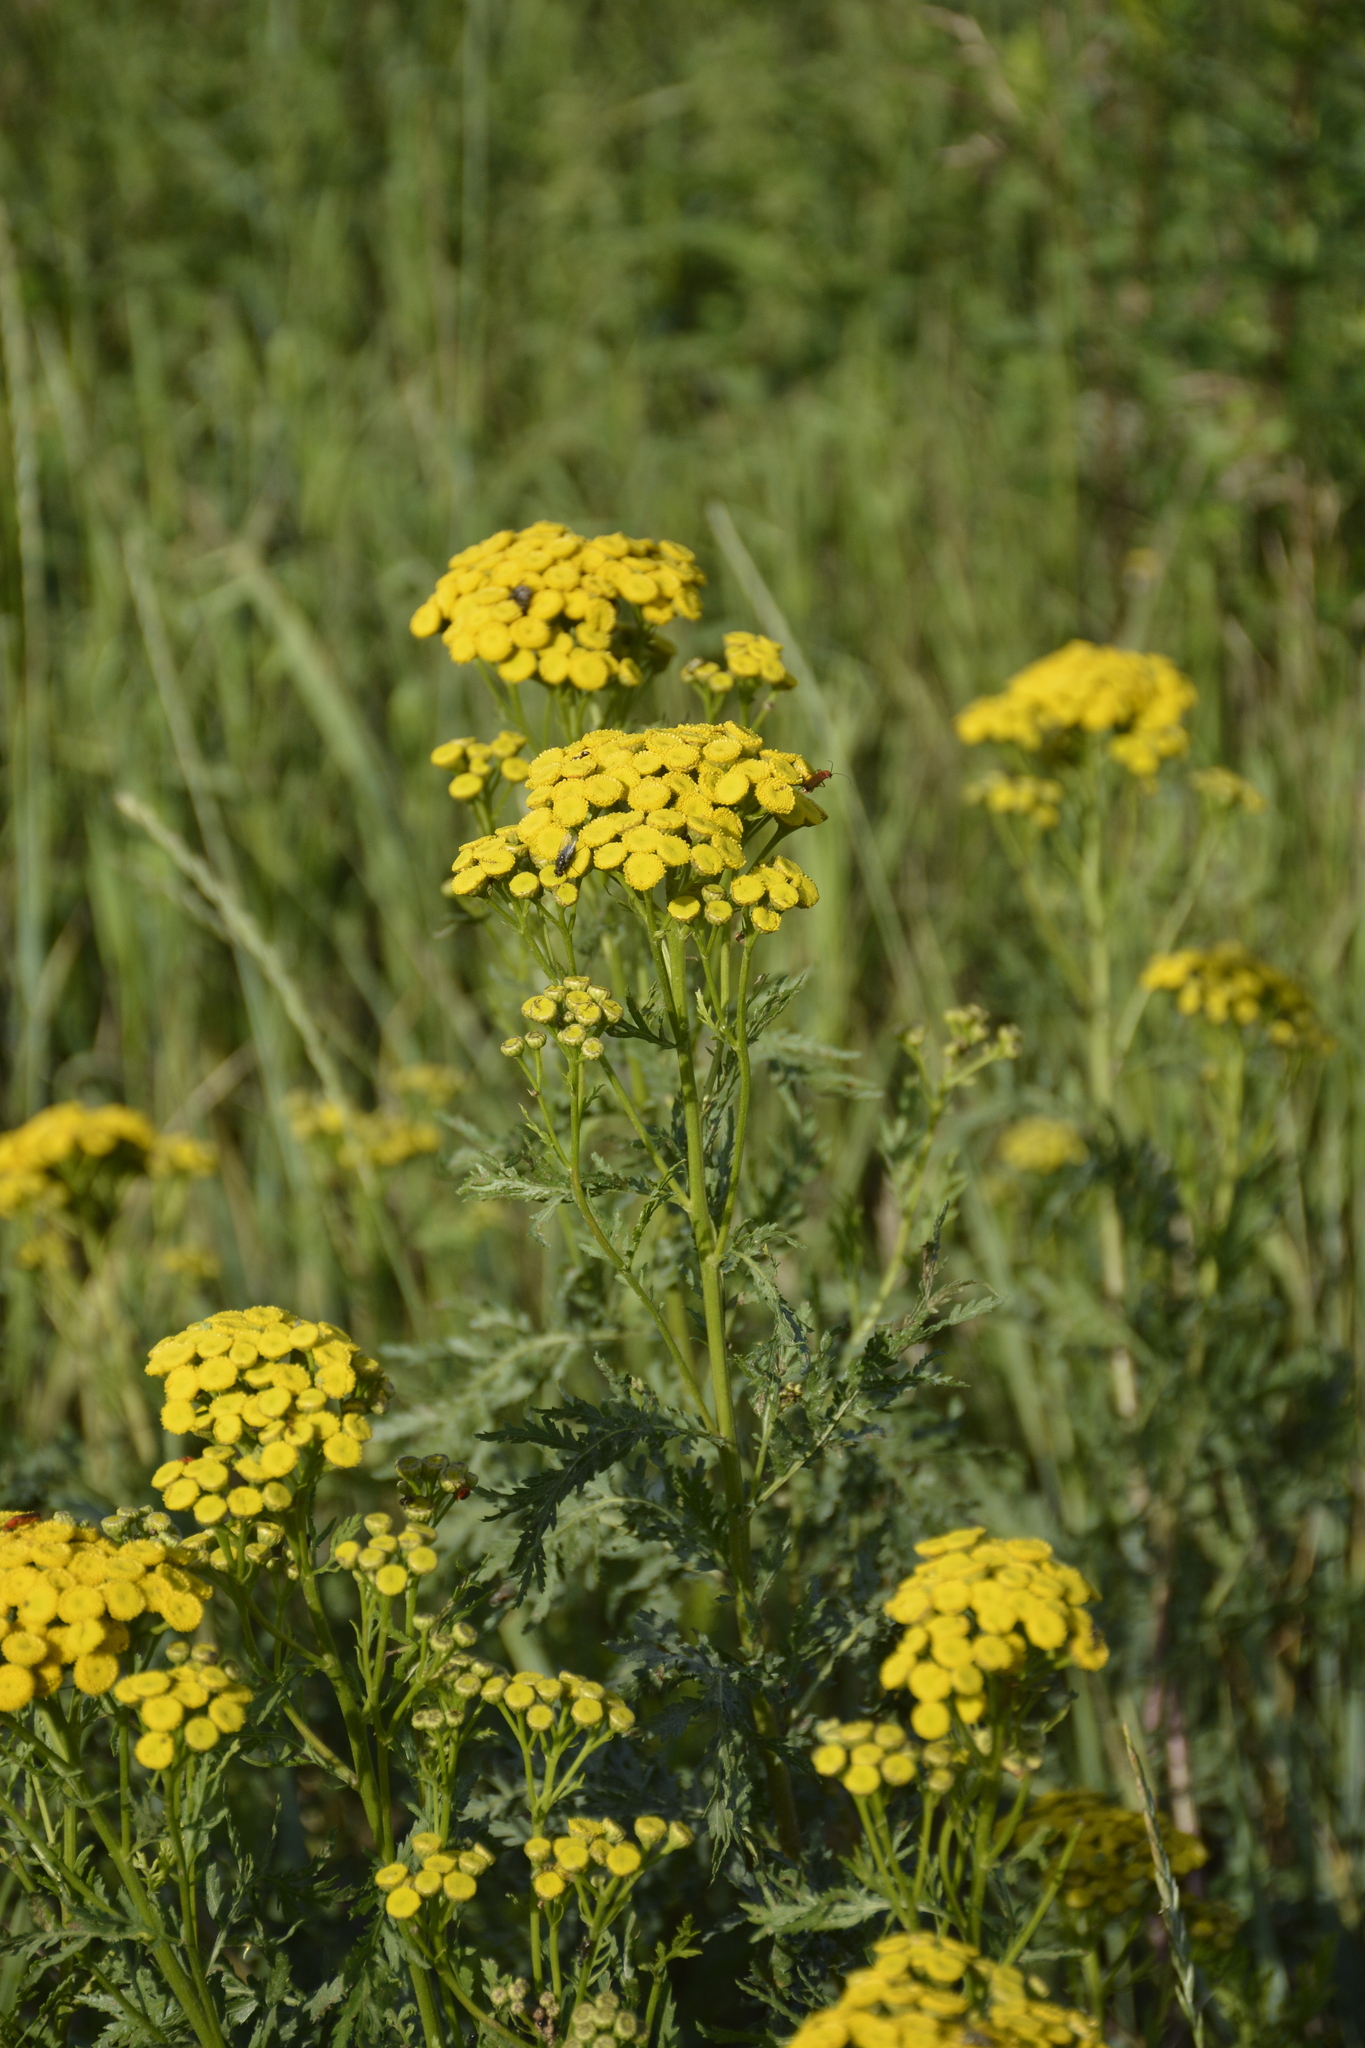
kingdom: Plantae
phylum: Tracheophyta
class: Magnoliopsida
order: Asterales
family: Asteraceae
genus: Tanacetum
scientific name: Tanacetum vulgare
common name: Common tansy
